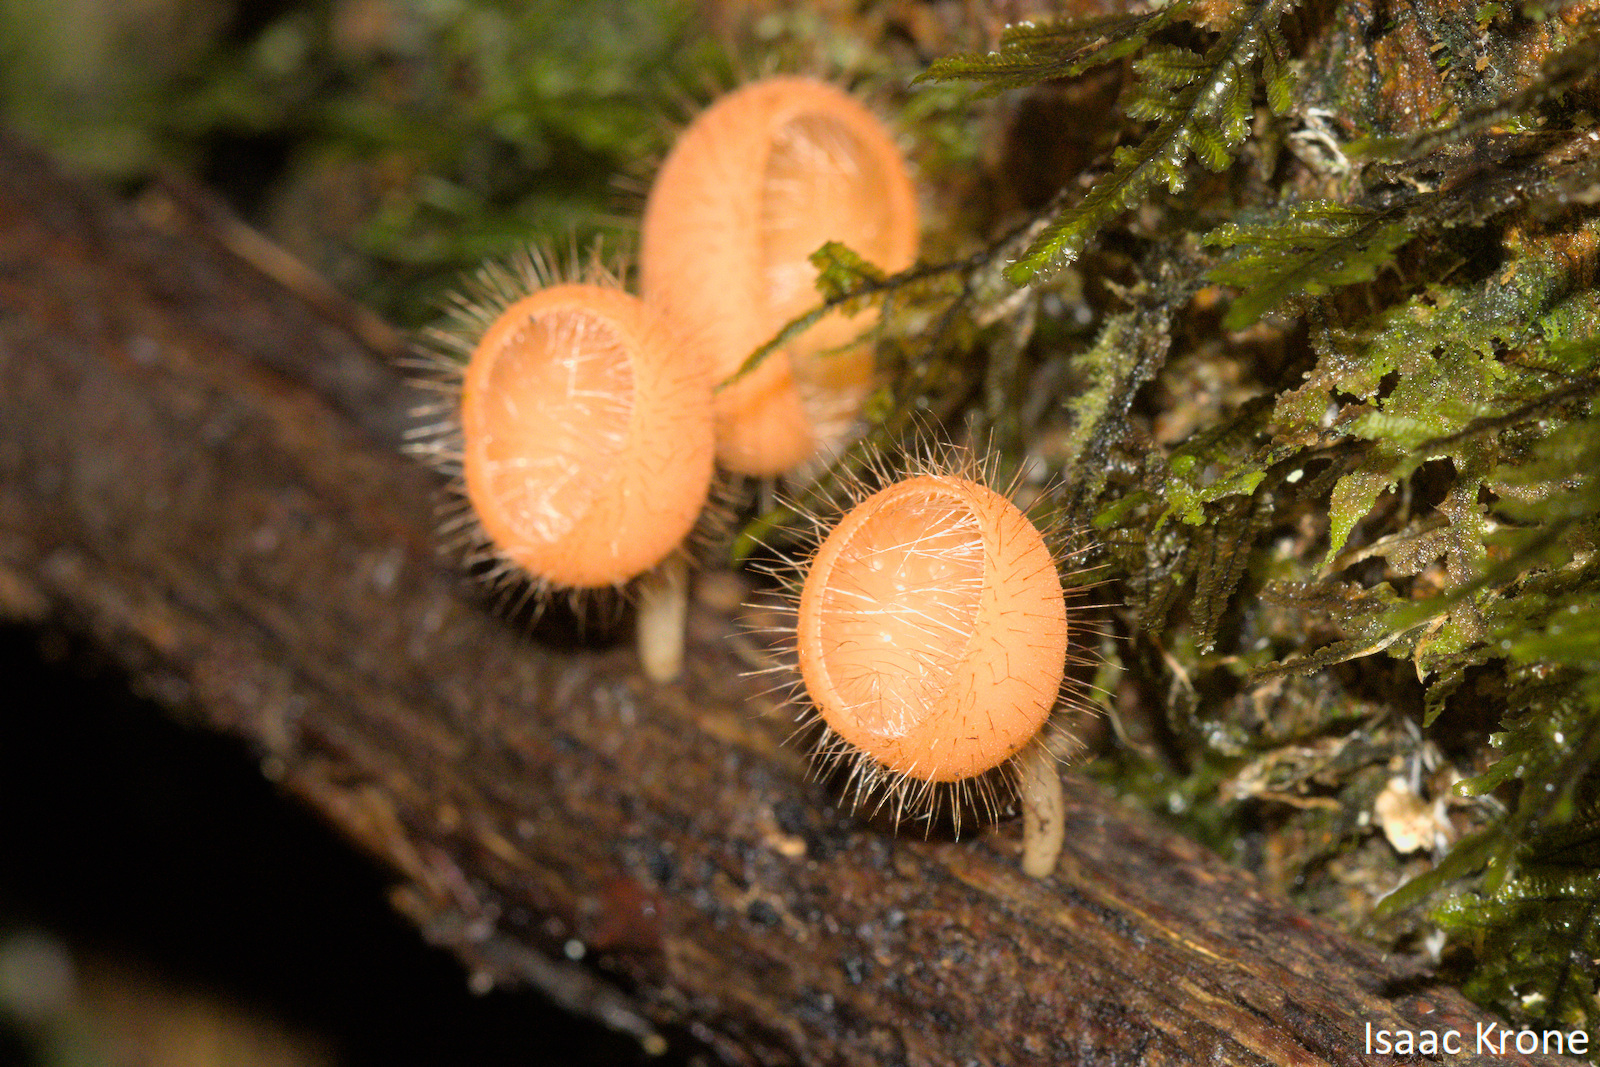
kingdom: Fungi
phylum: Ascomycota
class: Pezizomycetes
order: Pezizales
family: Sarcoscyphaceae
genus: Cookeina
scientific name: Cookeina tricholoma
